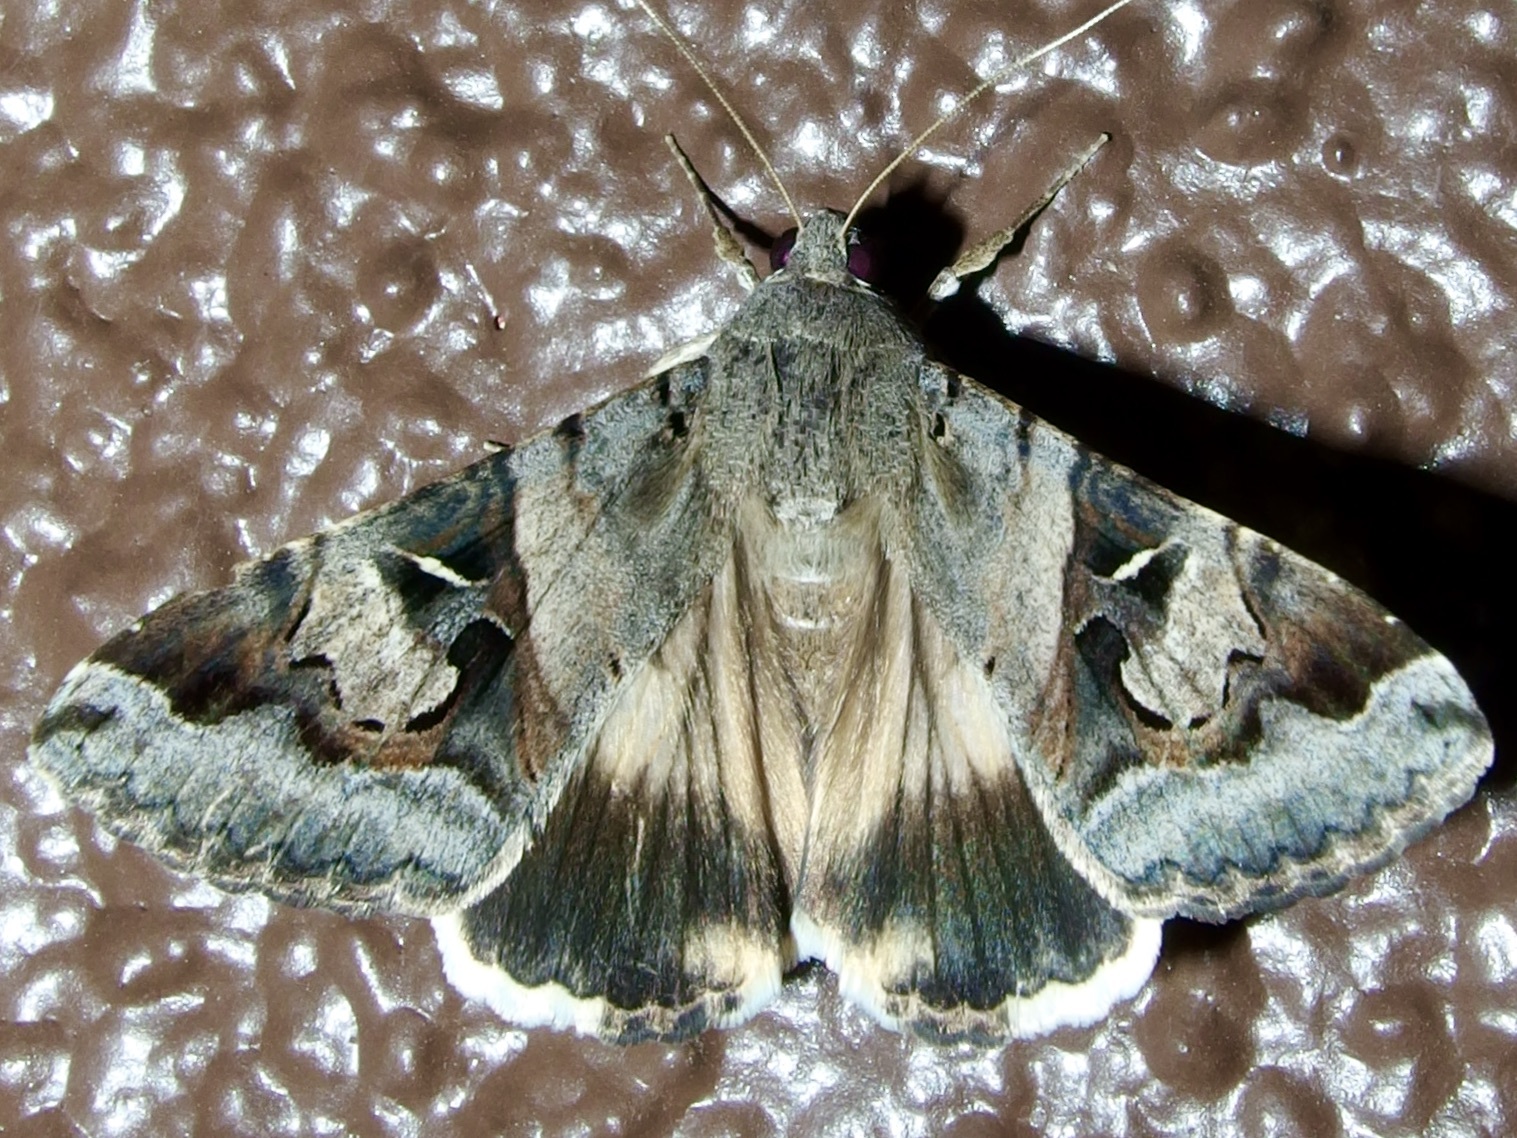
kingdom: Animalia
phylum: Arthropoda
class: Insecta
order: Lepidoptera
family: Erebidae
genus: Melipotis
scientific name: Melipotis indomita
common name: Moth
